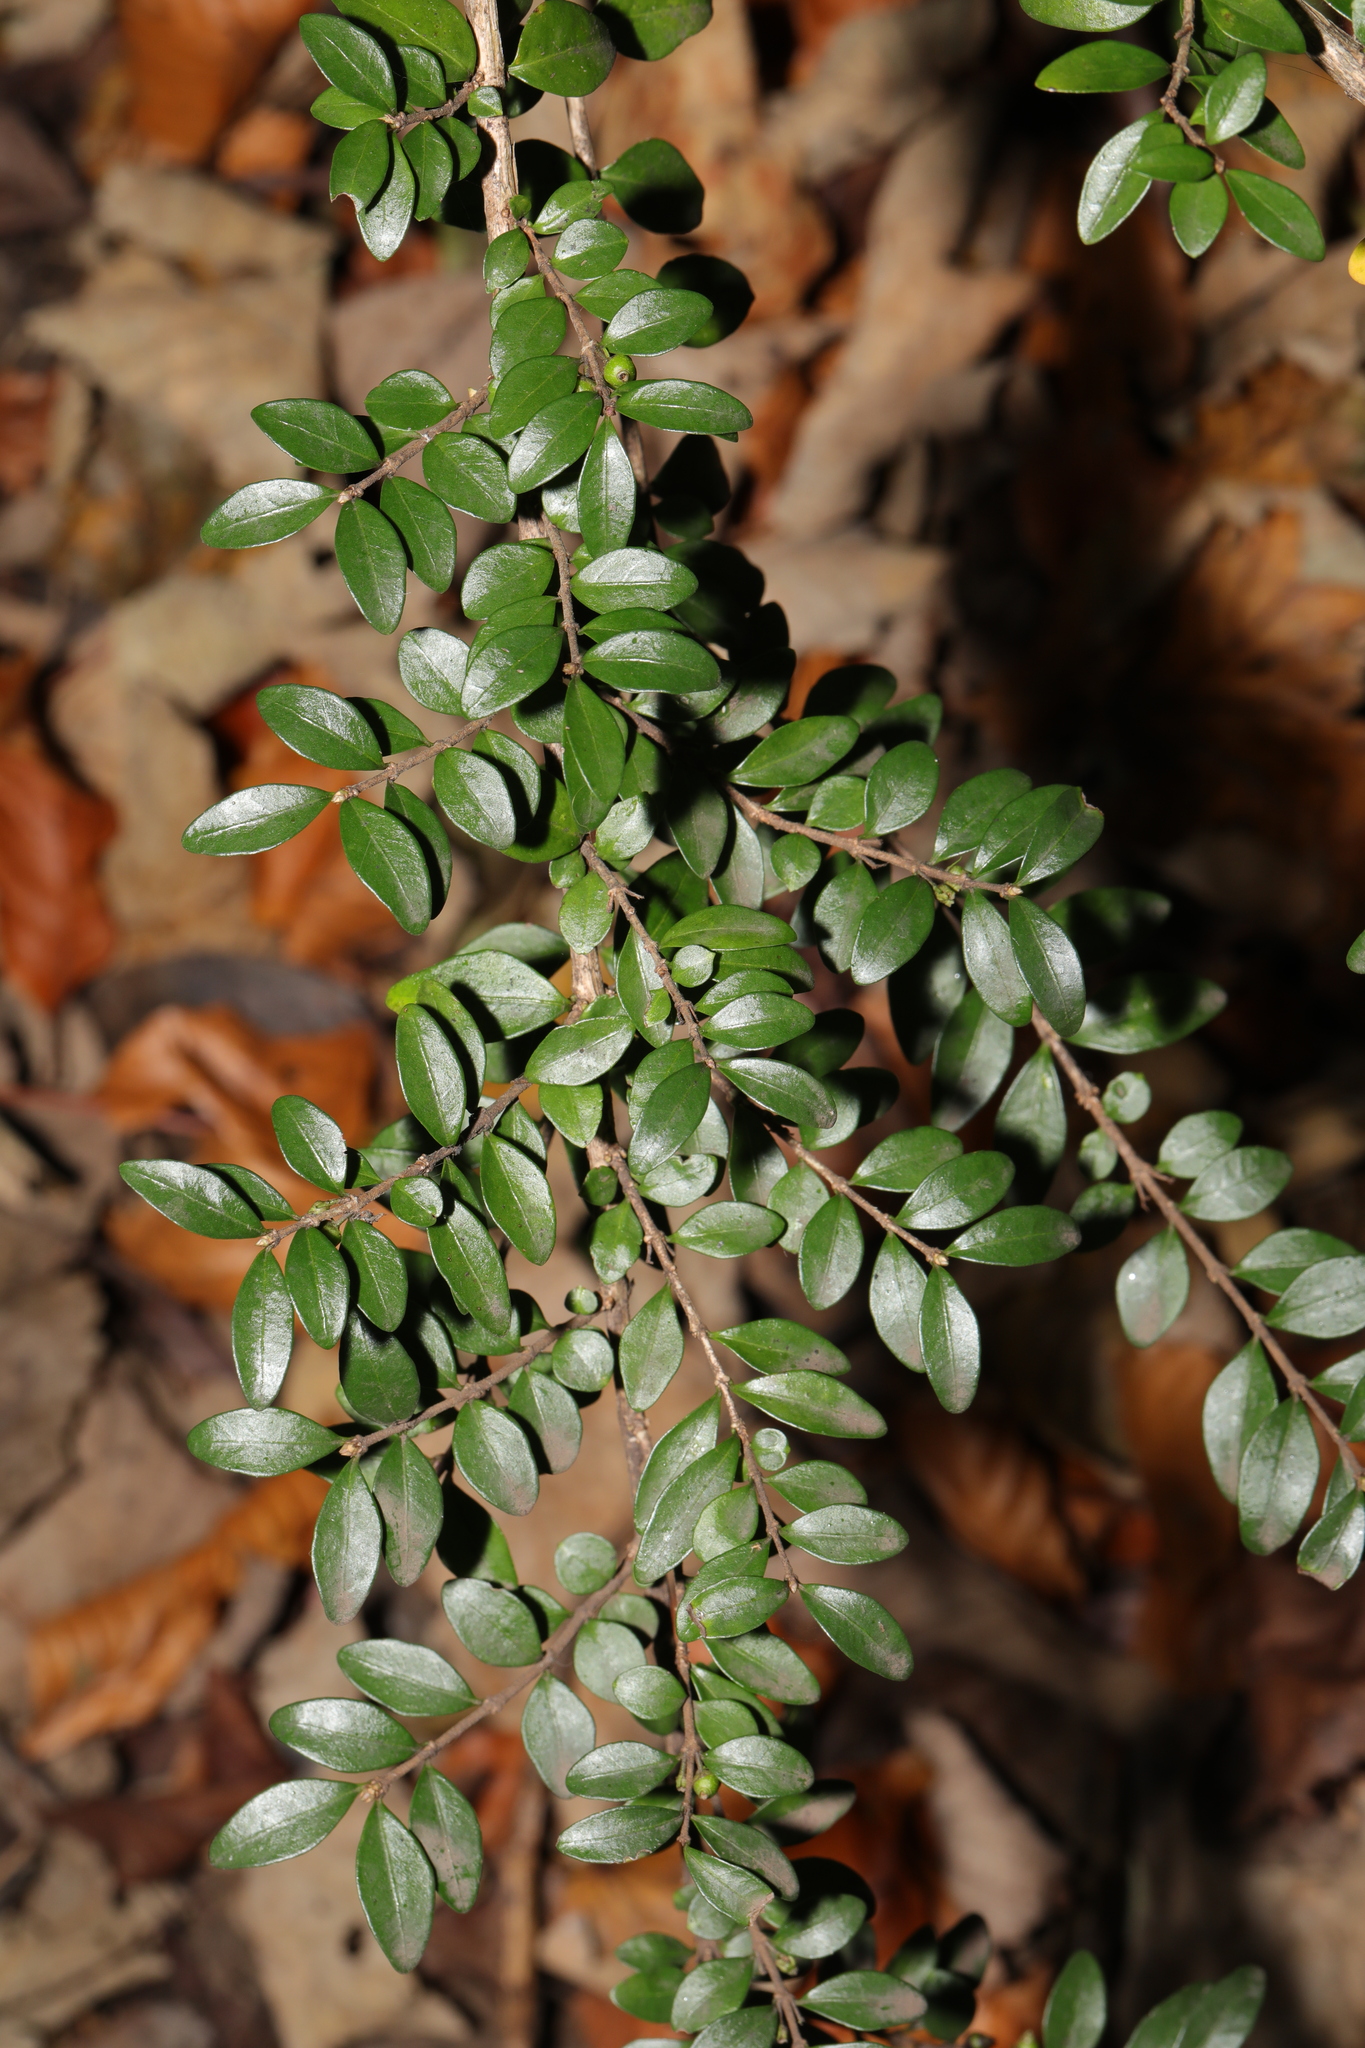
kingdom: Plantae
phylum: Tracheophyta
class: Magnoliopsida
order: Dipsacales
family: Caprifoliaceae
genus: Lonicera
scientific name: Lonicera ligustrina
